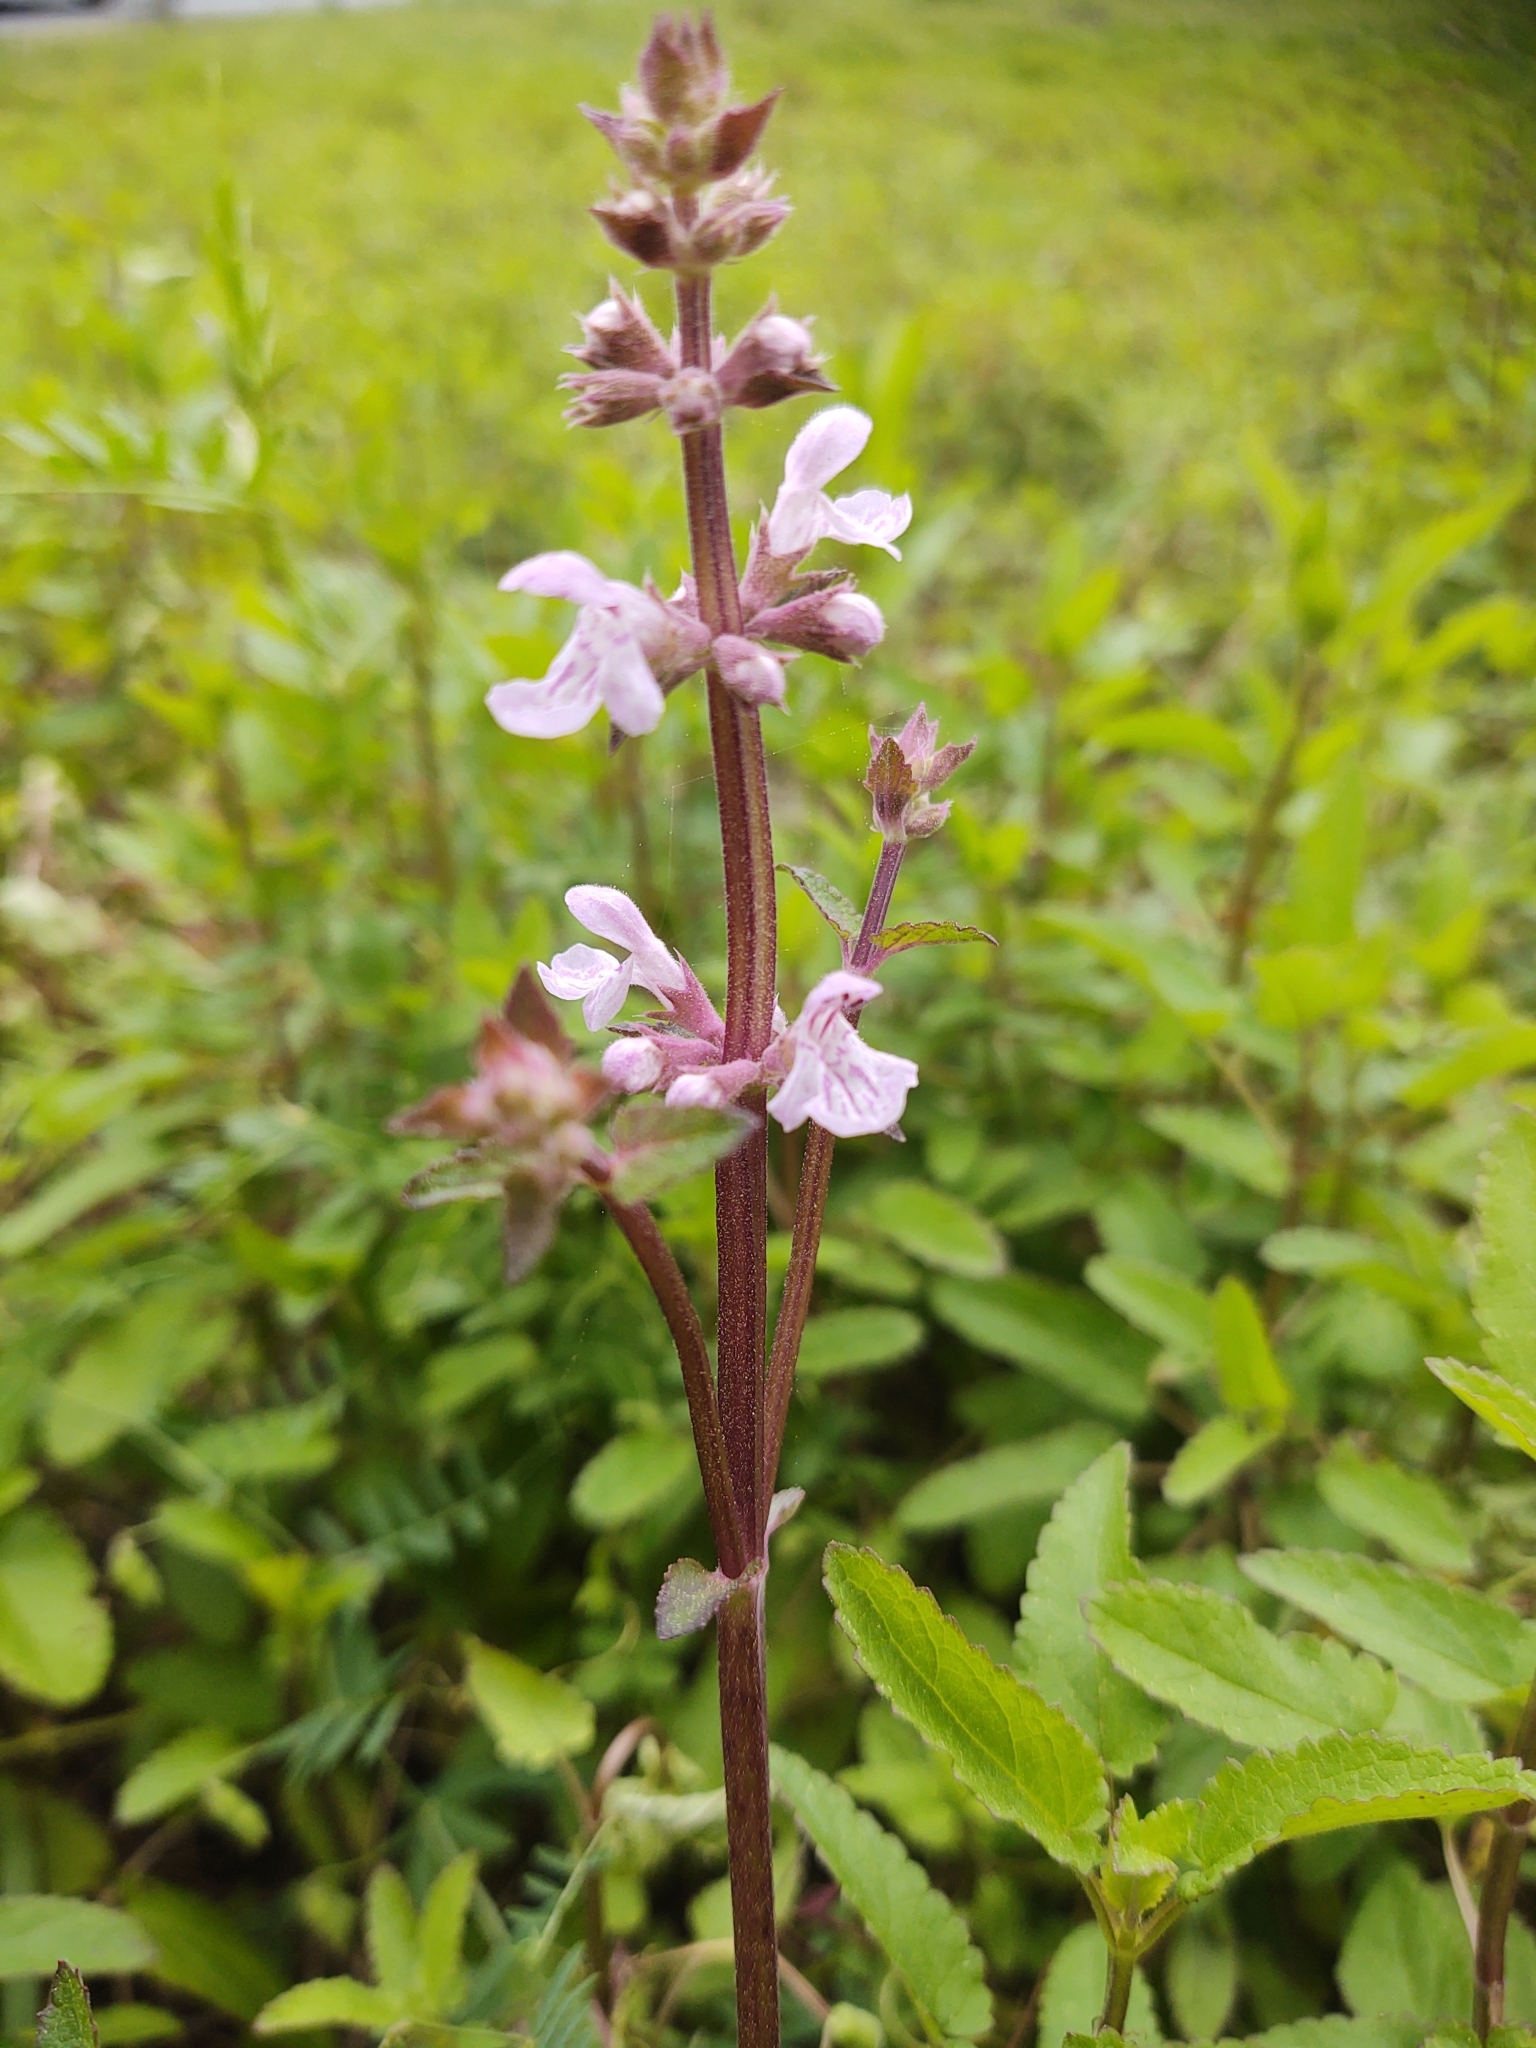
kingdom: Plantae
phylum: Tracheophyta
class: Magnoliopsida
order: Lamiales
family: Lamiaceae
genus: Stachys
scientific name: Stachys floridana
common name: Florida betony
